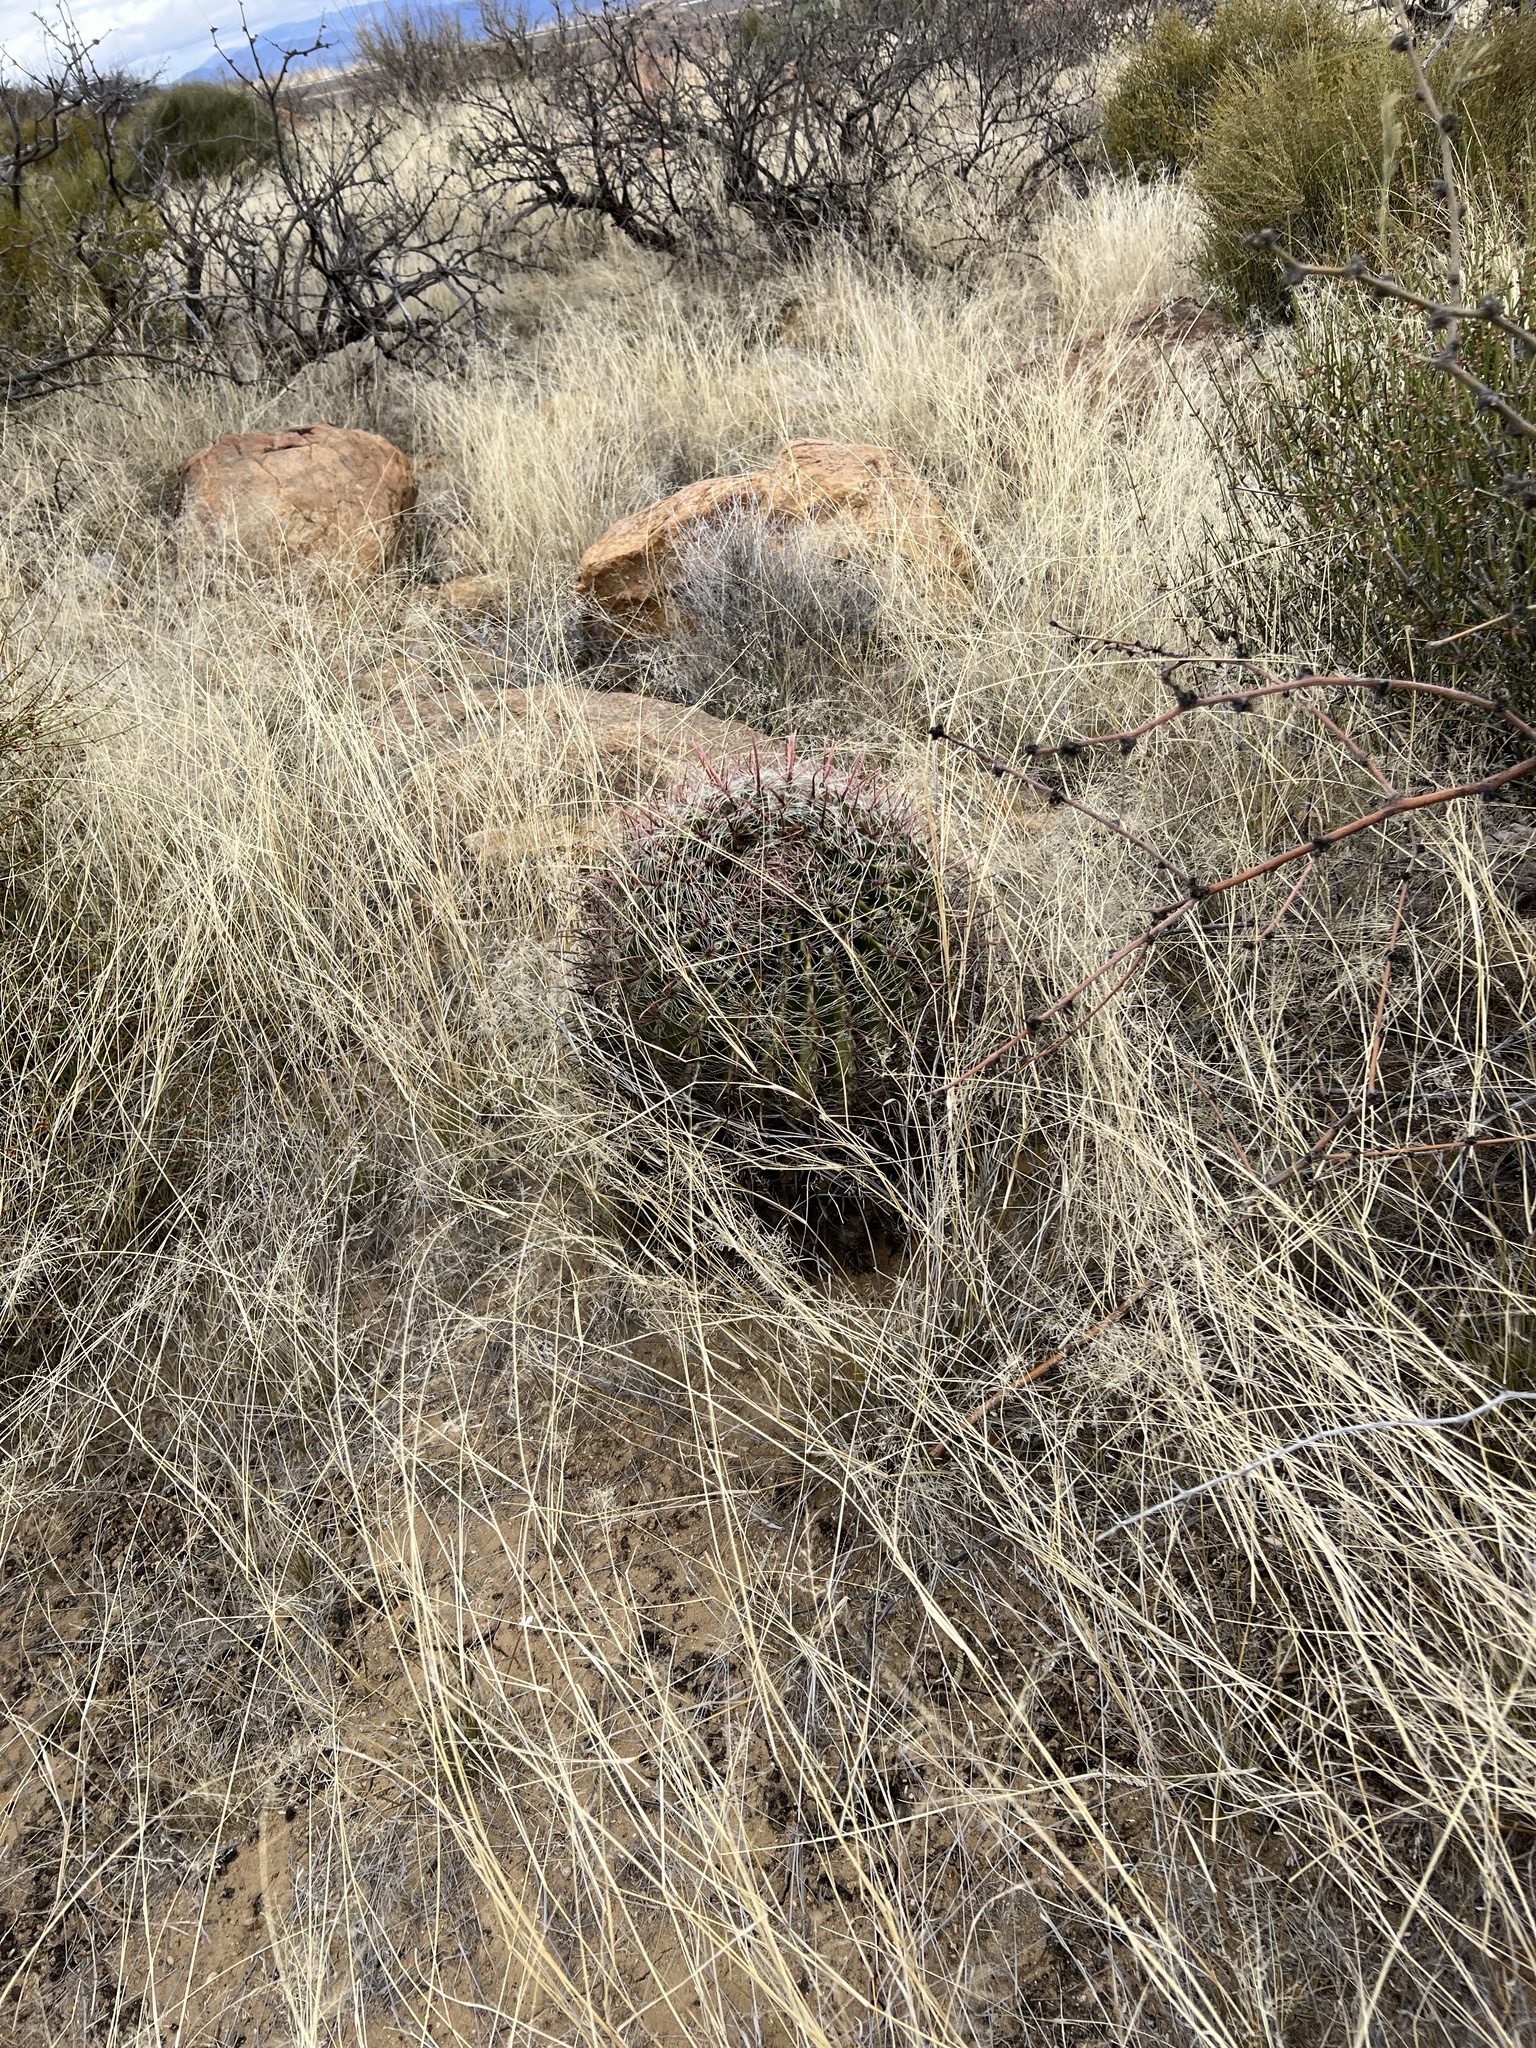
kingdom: Plantae
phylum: Tracheophyta
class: Magnoliopsida
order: Caryophyllales
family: Cactaceae
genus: Ferocactus
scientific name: Ferocactus wislizeni
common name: Candy barrel cactus
